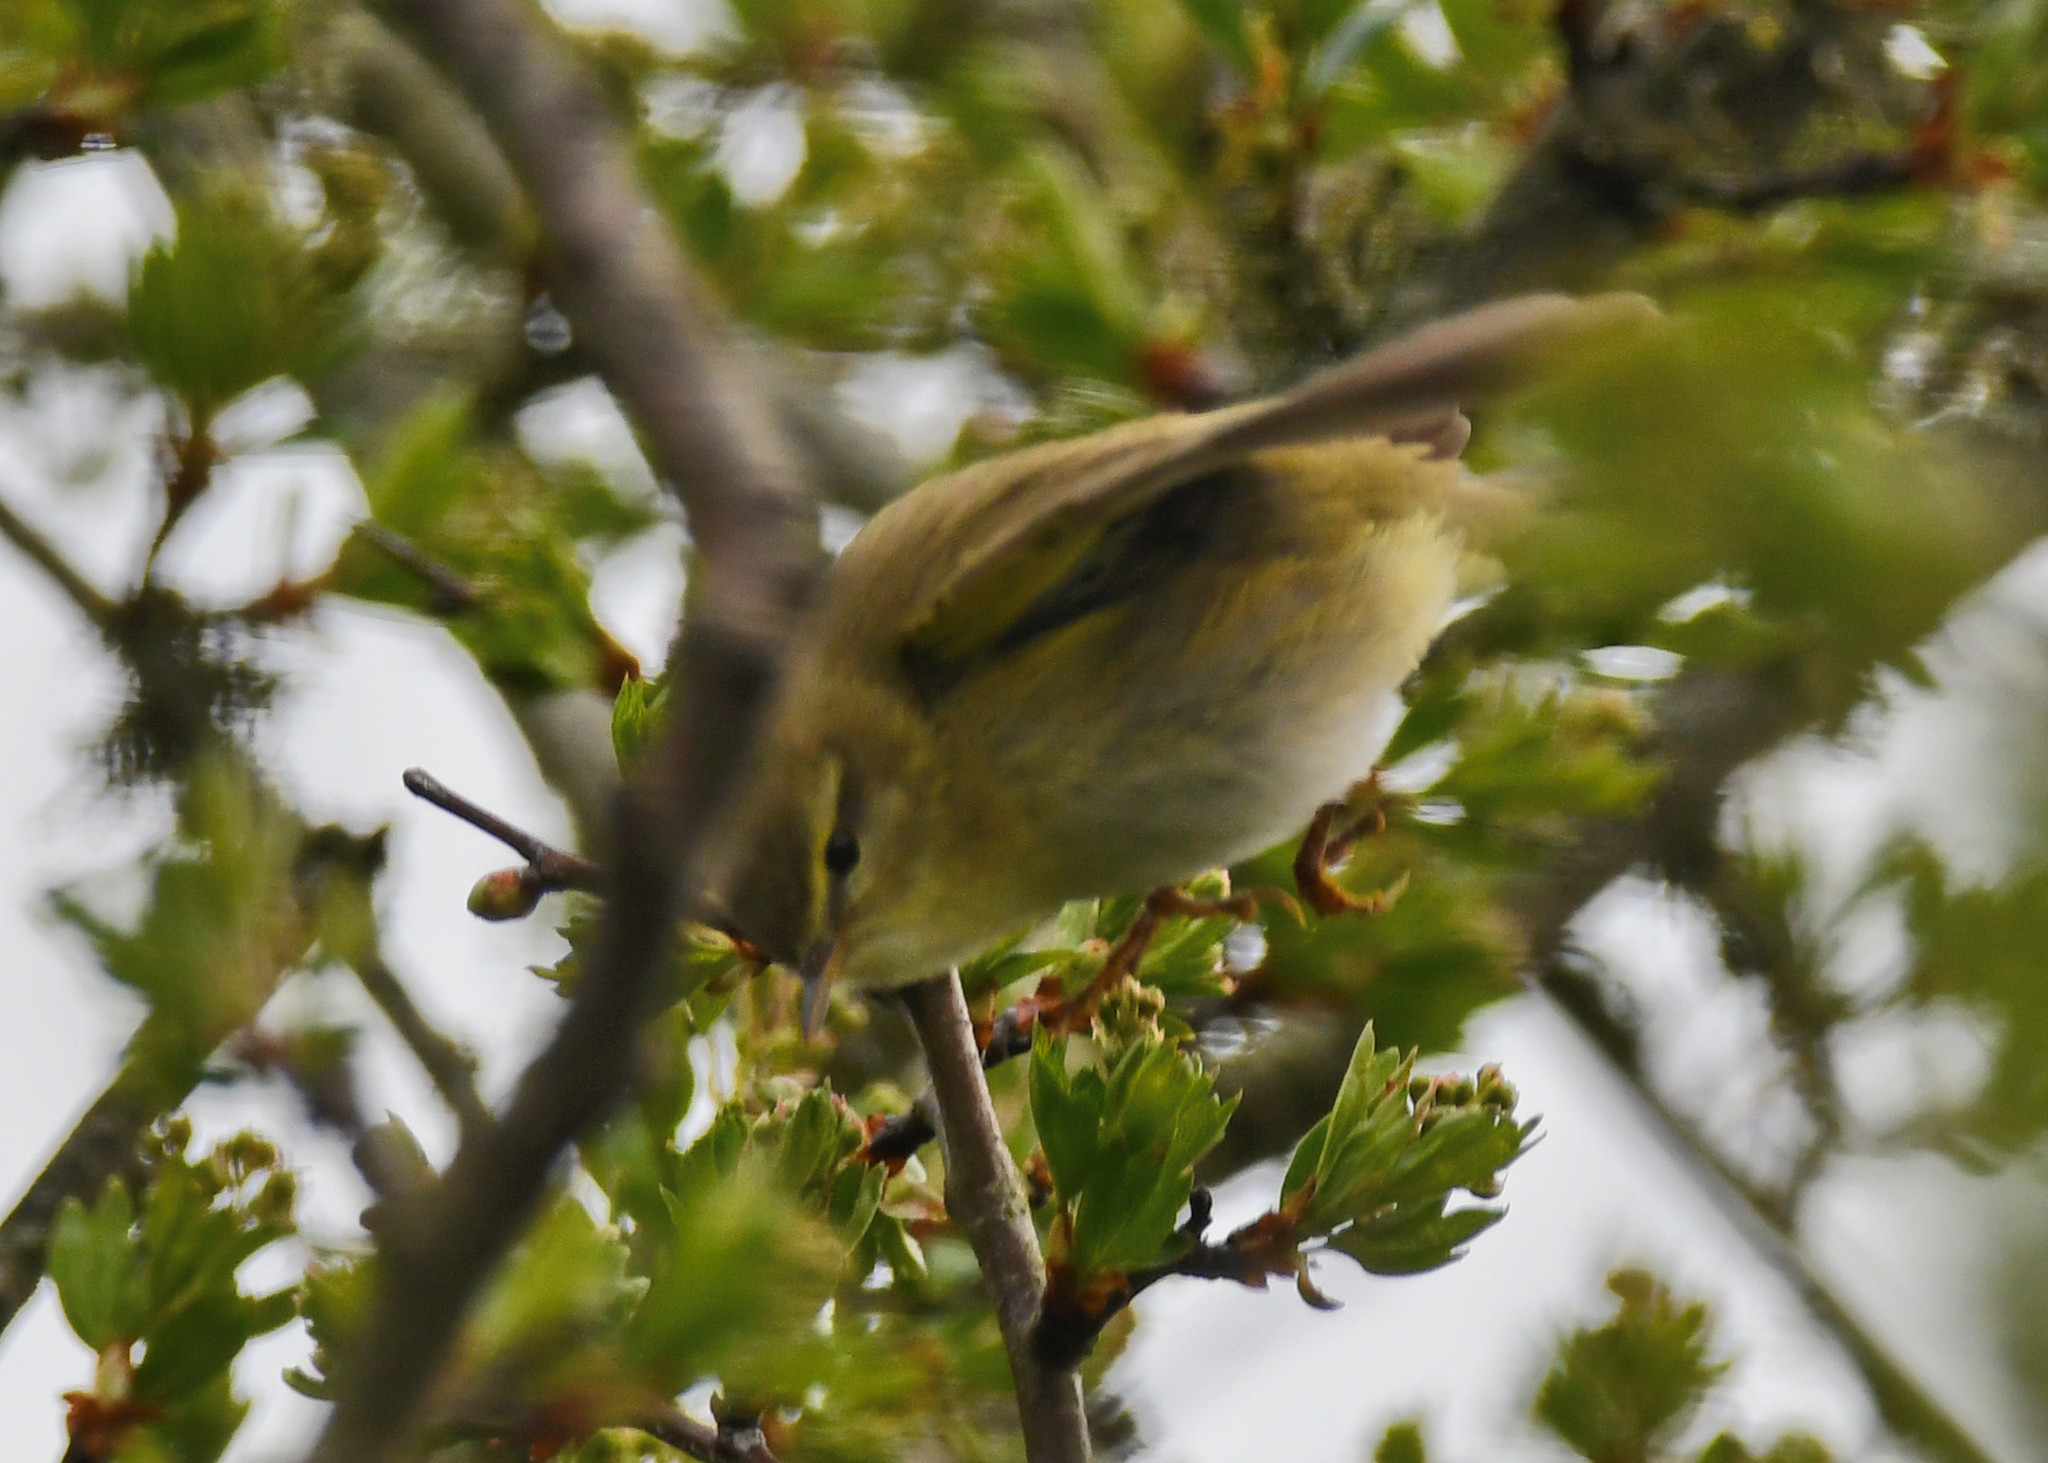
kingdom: Animalia
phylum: Chordata
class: Aves
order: Passeriformes
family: Phylloscopidae
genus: Phylloscopus
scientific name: Phylloscopus trochilus
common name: Willow warbler
